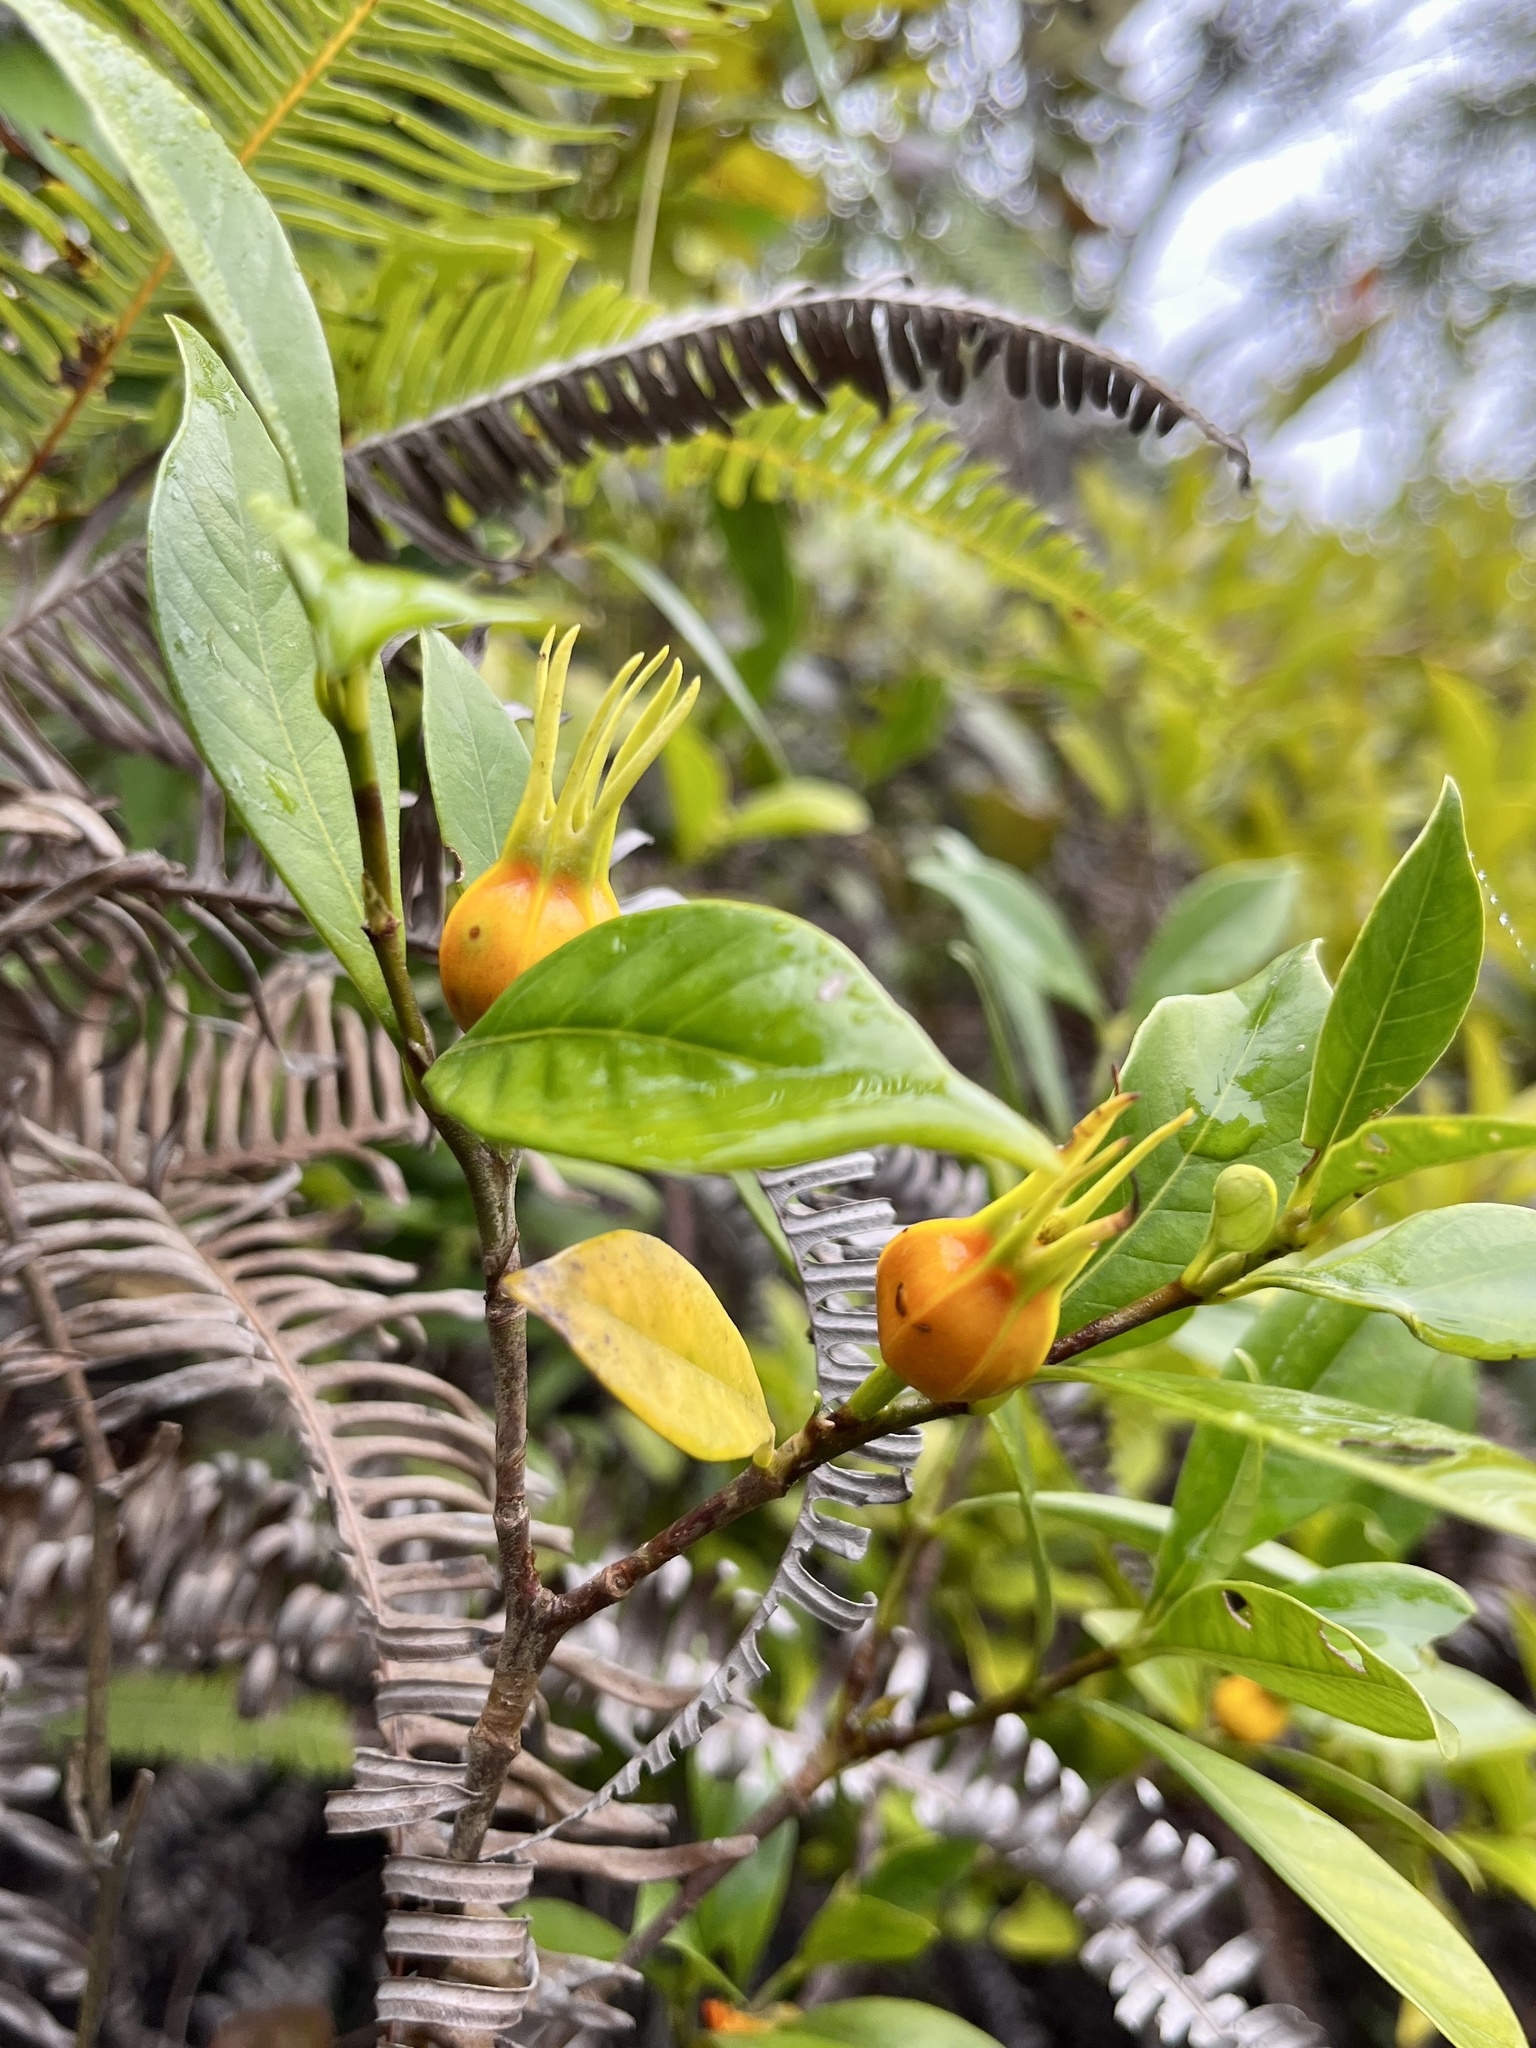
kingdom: Plantae
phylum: Tracheophyta
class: Magnoliopsida
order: Gentianales
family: Rubiaceae
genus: Gardenia
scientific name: Gardenia jasminoides
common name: Cape-jasmine
